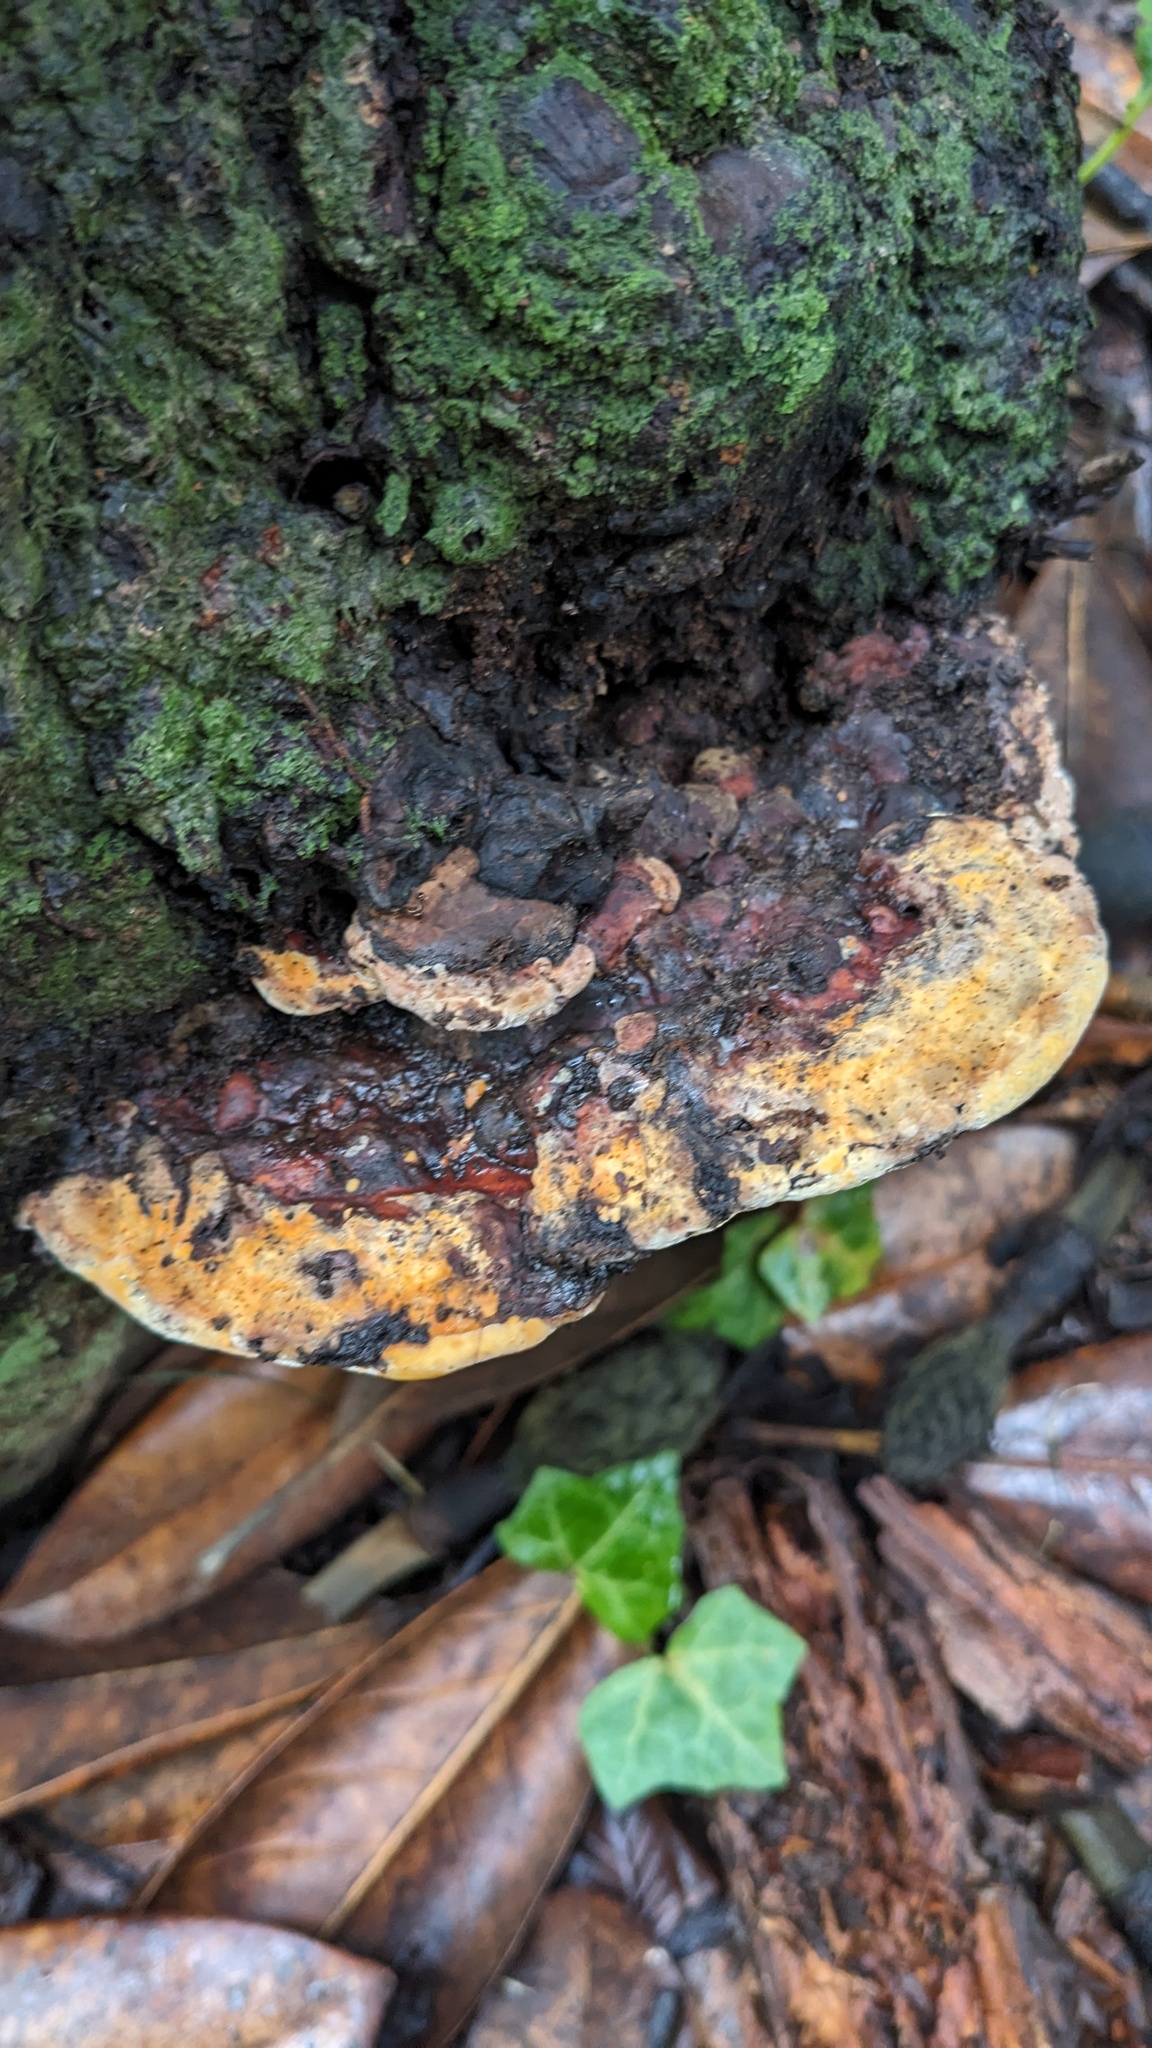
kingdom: Fungi
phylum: Basidiomycota
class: Agaricomycetes
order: Polyporales
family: Polyporaceae
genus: Vanderbylia
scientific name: Vanderbylia fraxinea
